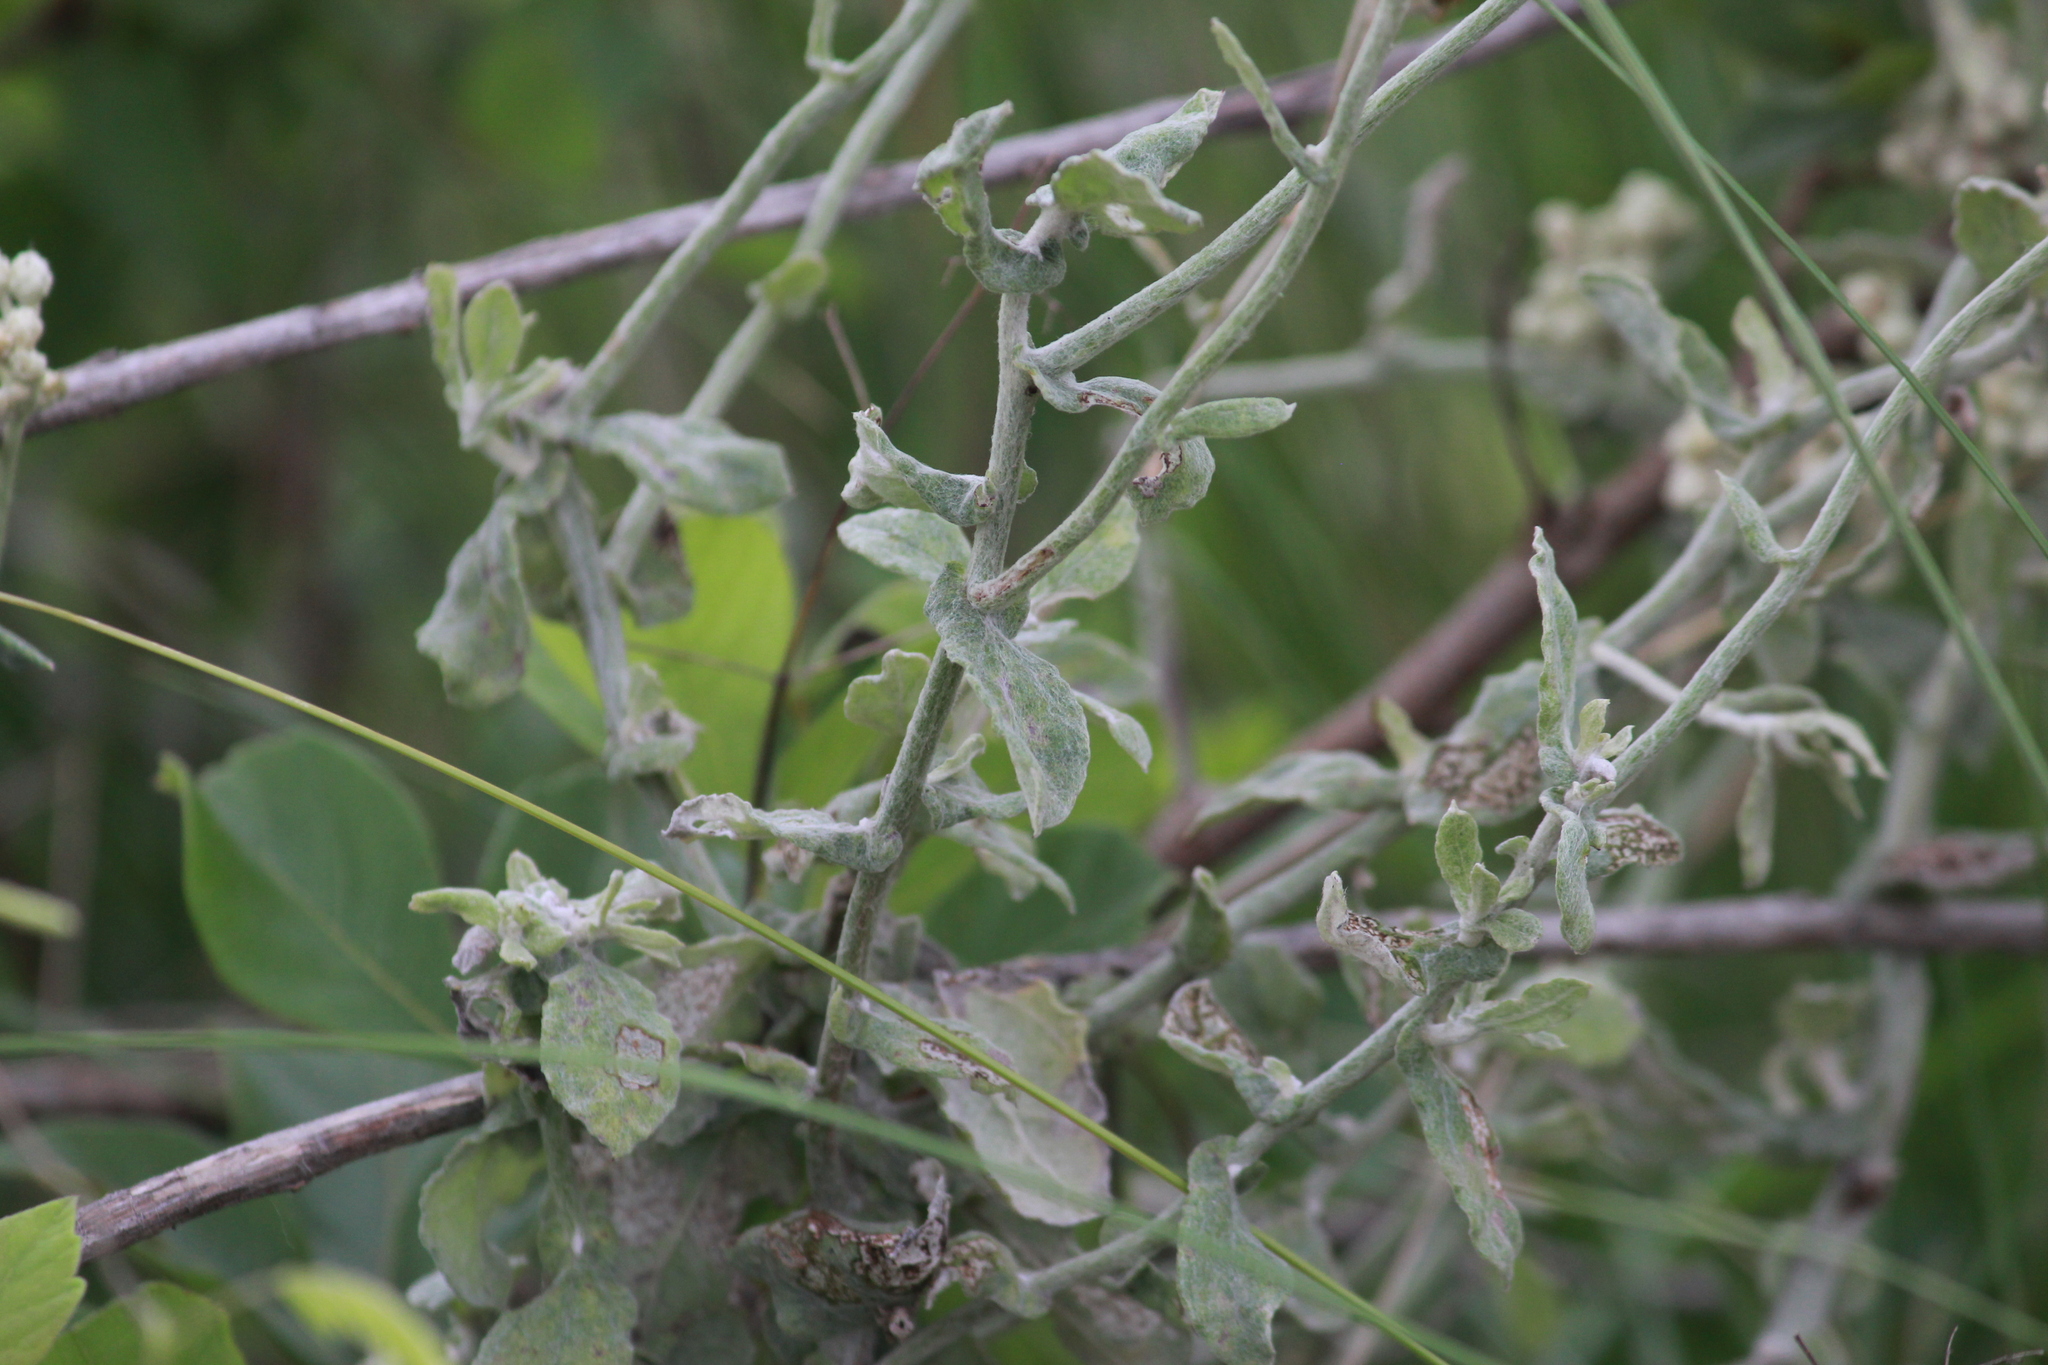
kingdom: Plantae
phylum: Tracheophyta
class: Magnoliopsida
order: Asterales
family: Asteraceae
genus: Helichrysum
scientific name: Helichrysum panduratum
